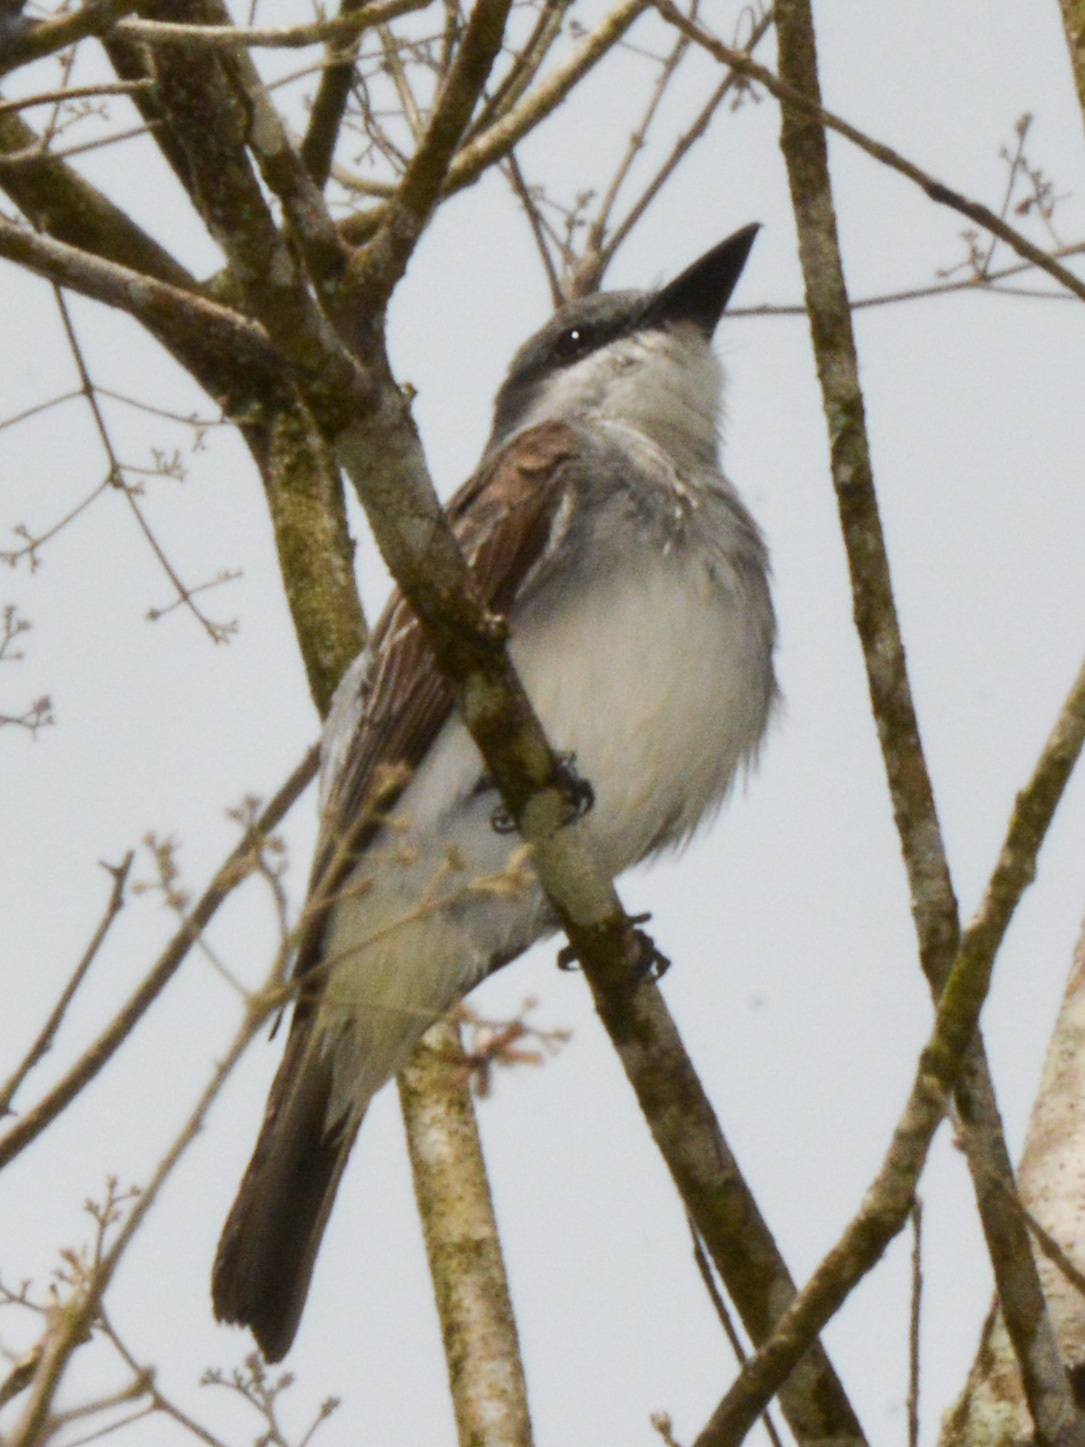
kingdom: Animalia
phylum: Chordata
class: Aves
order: Passeriformes
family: Tyrannidae
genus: Tyrannus
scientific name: Tyrannus dominicensis
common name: Gray kingbird
